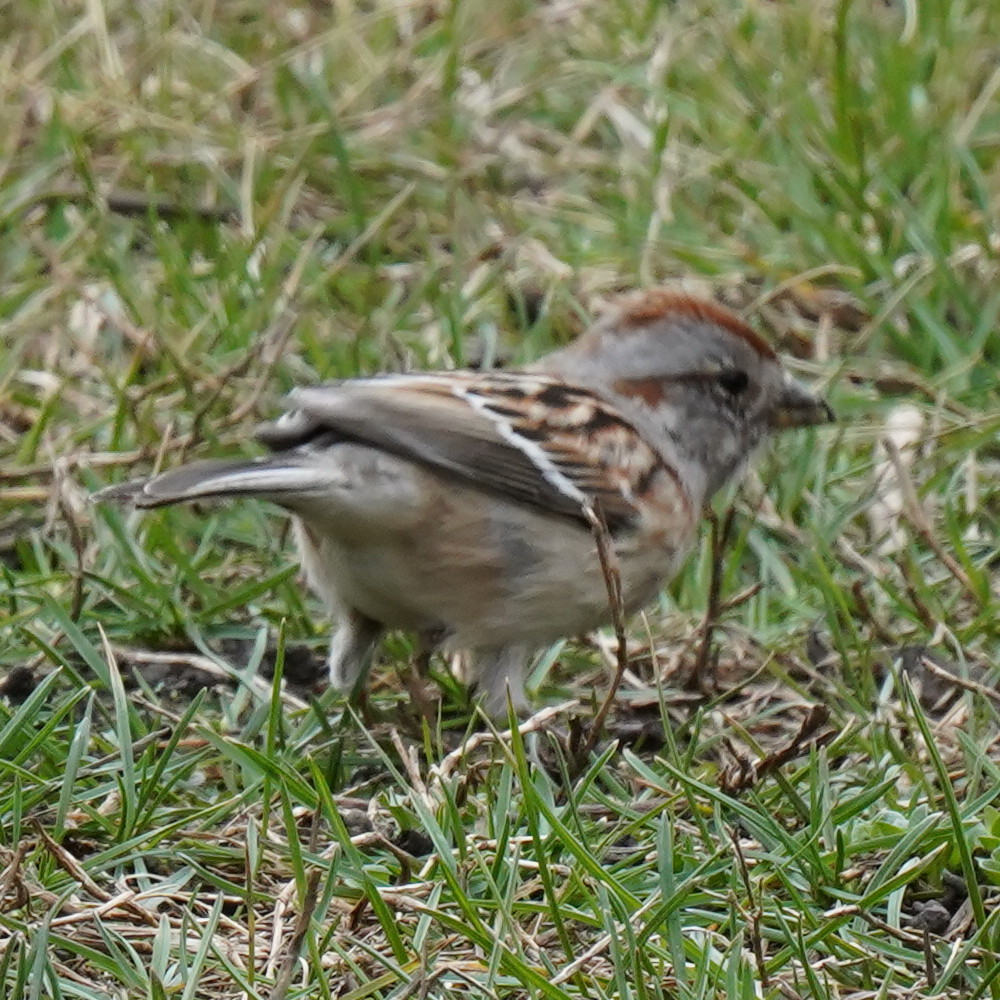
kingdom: Animalia
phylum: Chordata
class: Aves
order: Passeriformes
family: Passerellidae
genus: Spizelloides
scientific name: Spizelloides arborea
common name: American tree sparrow
